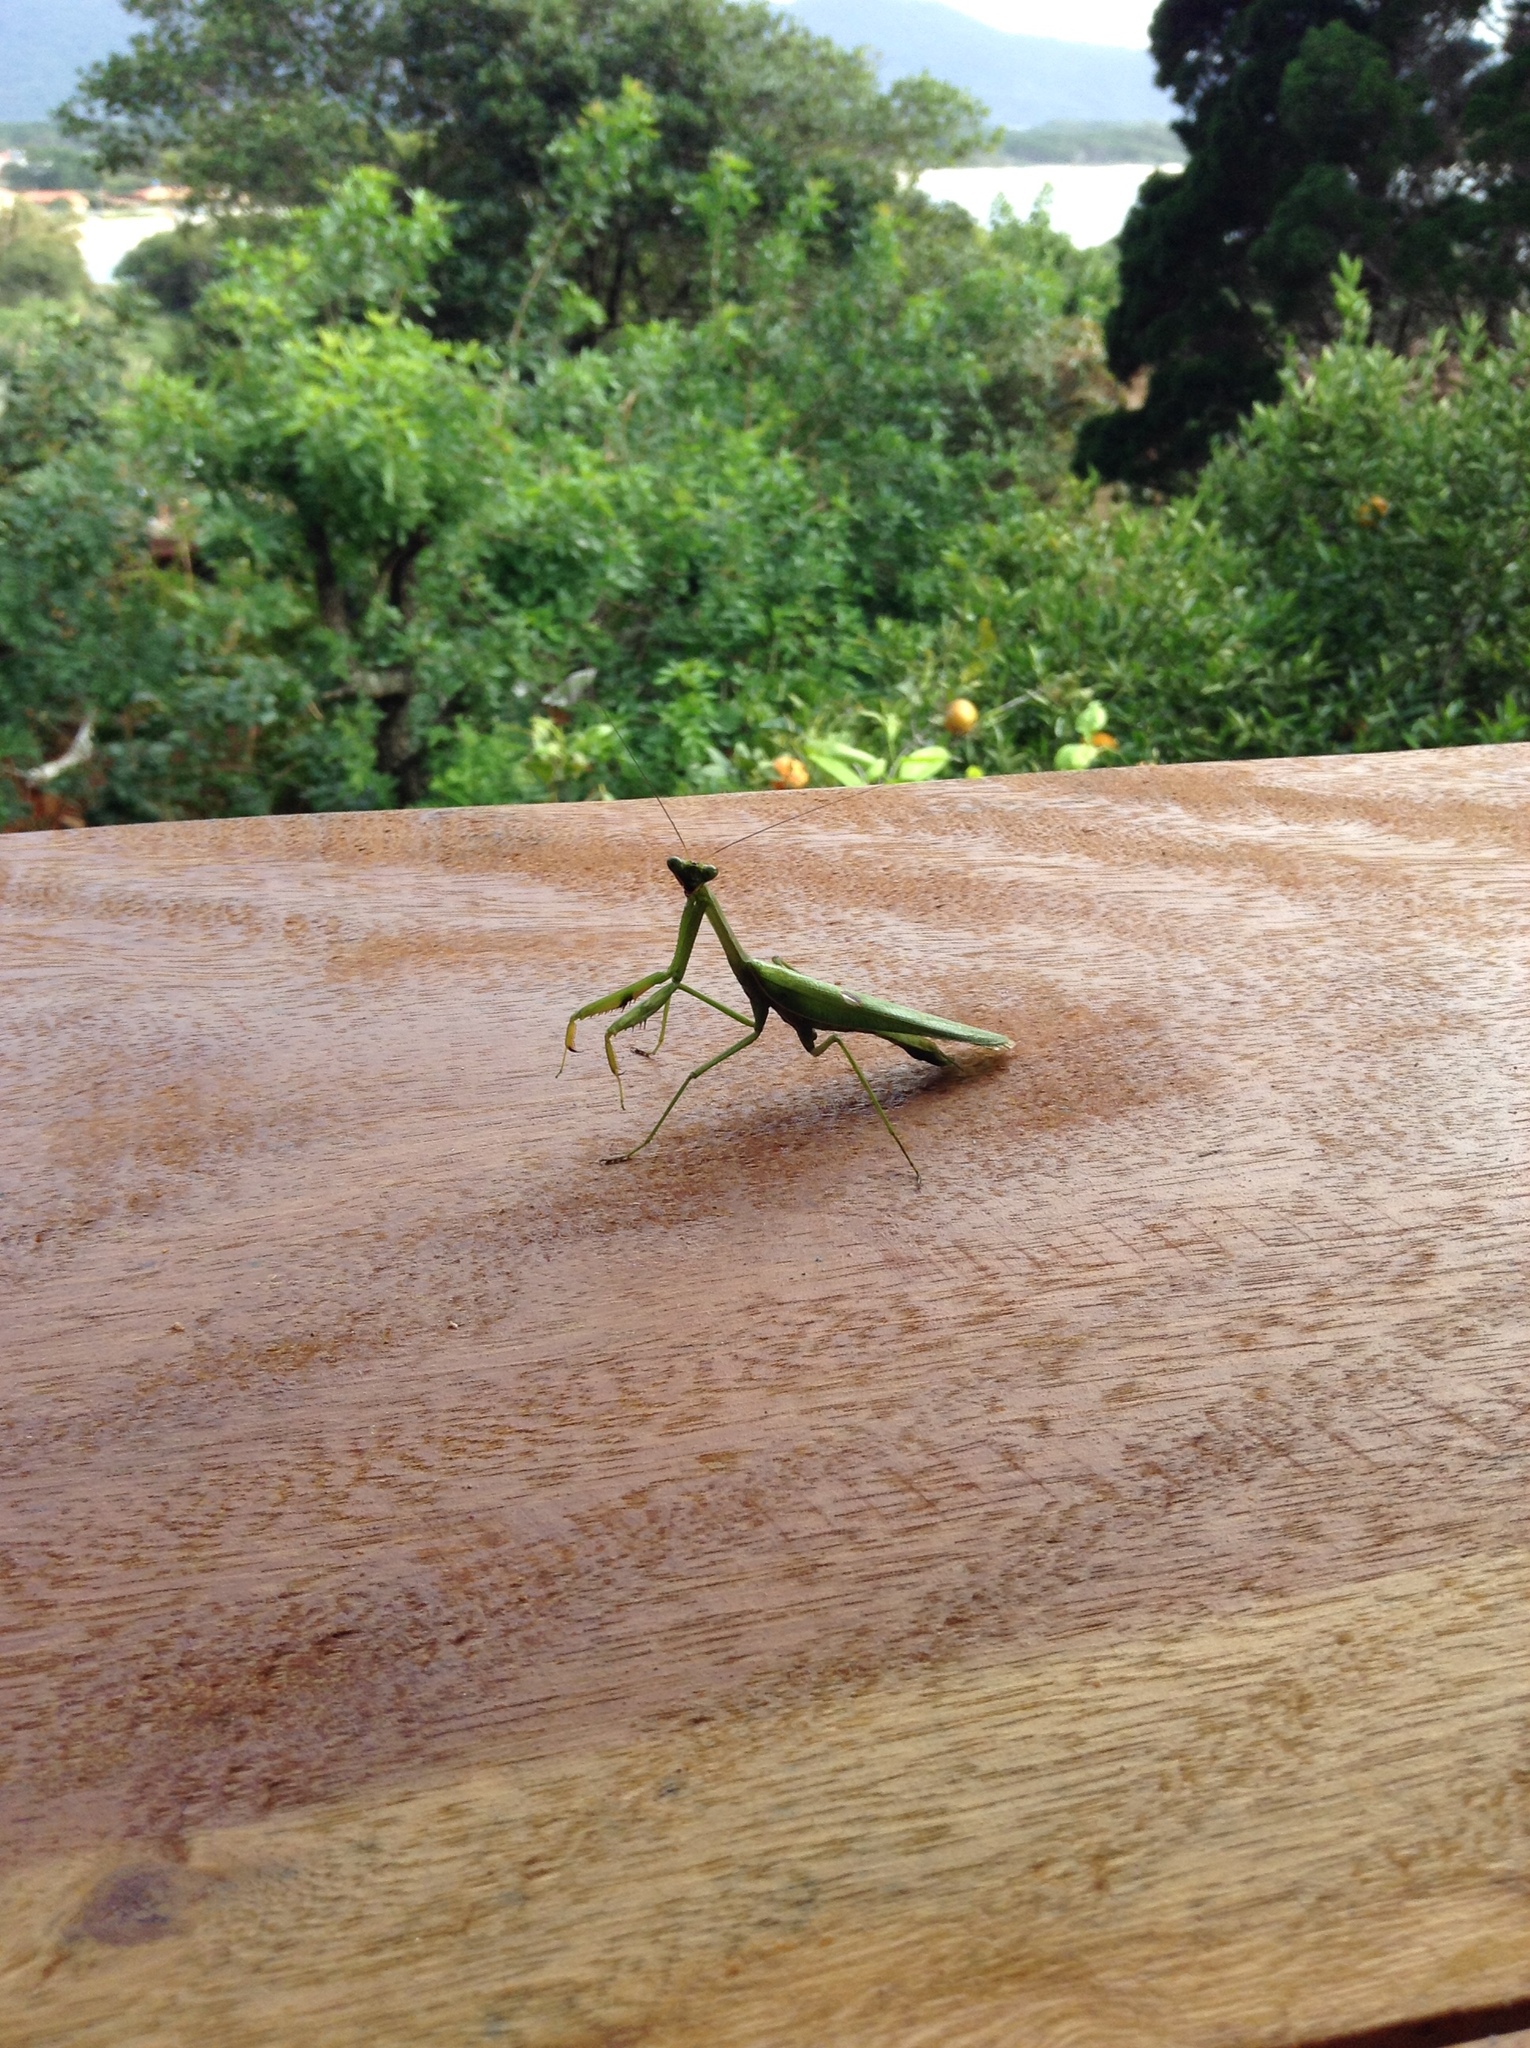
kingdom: Animalia
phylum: Arthropoda
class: Insecta
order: Mantodea
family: Mantidae
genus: Stagmatoptera
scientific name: Stagmatoptera praecaria
